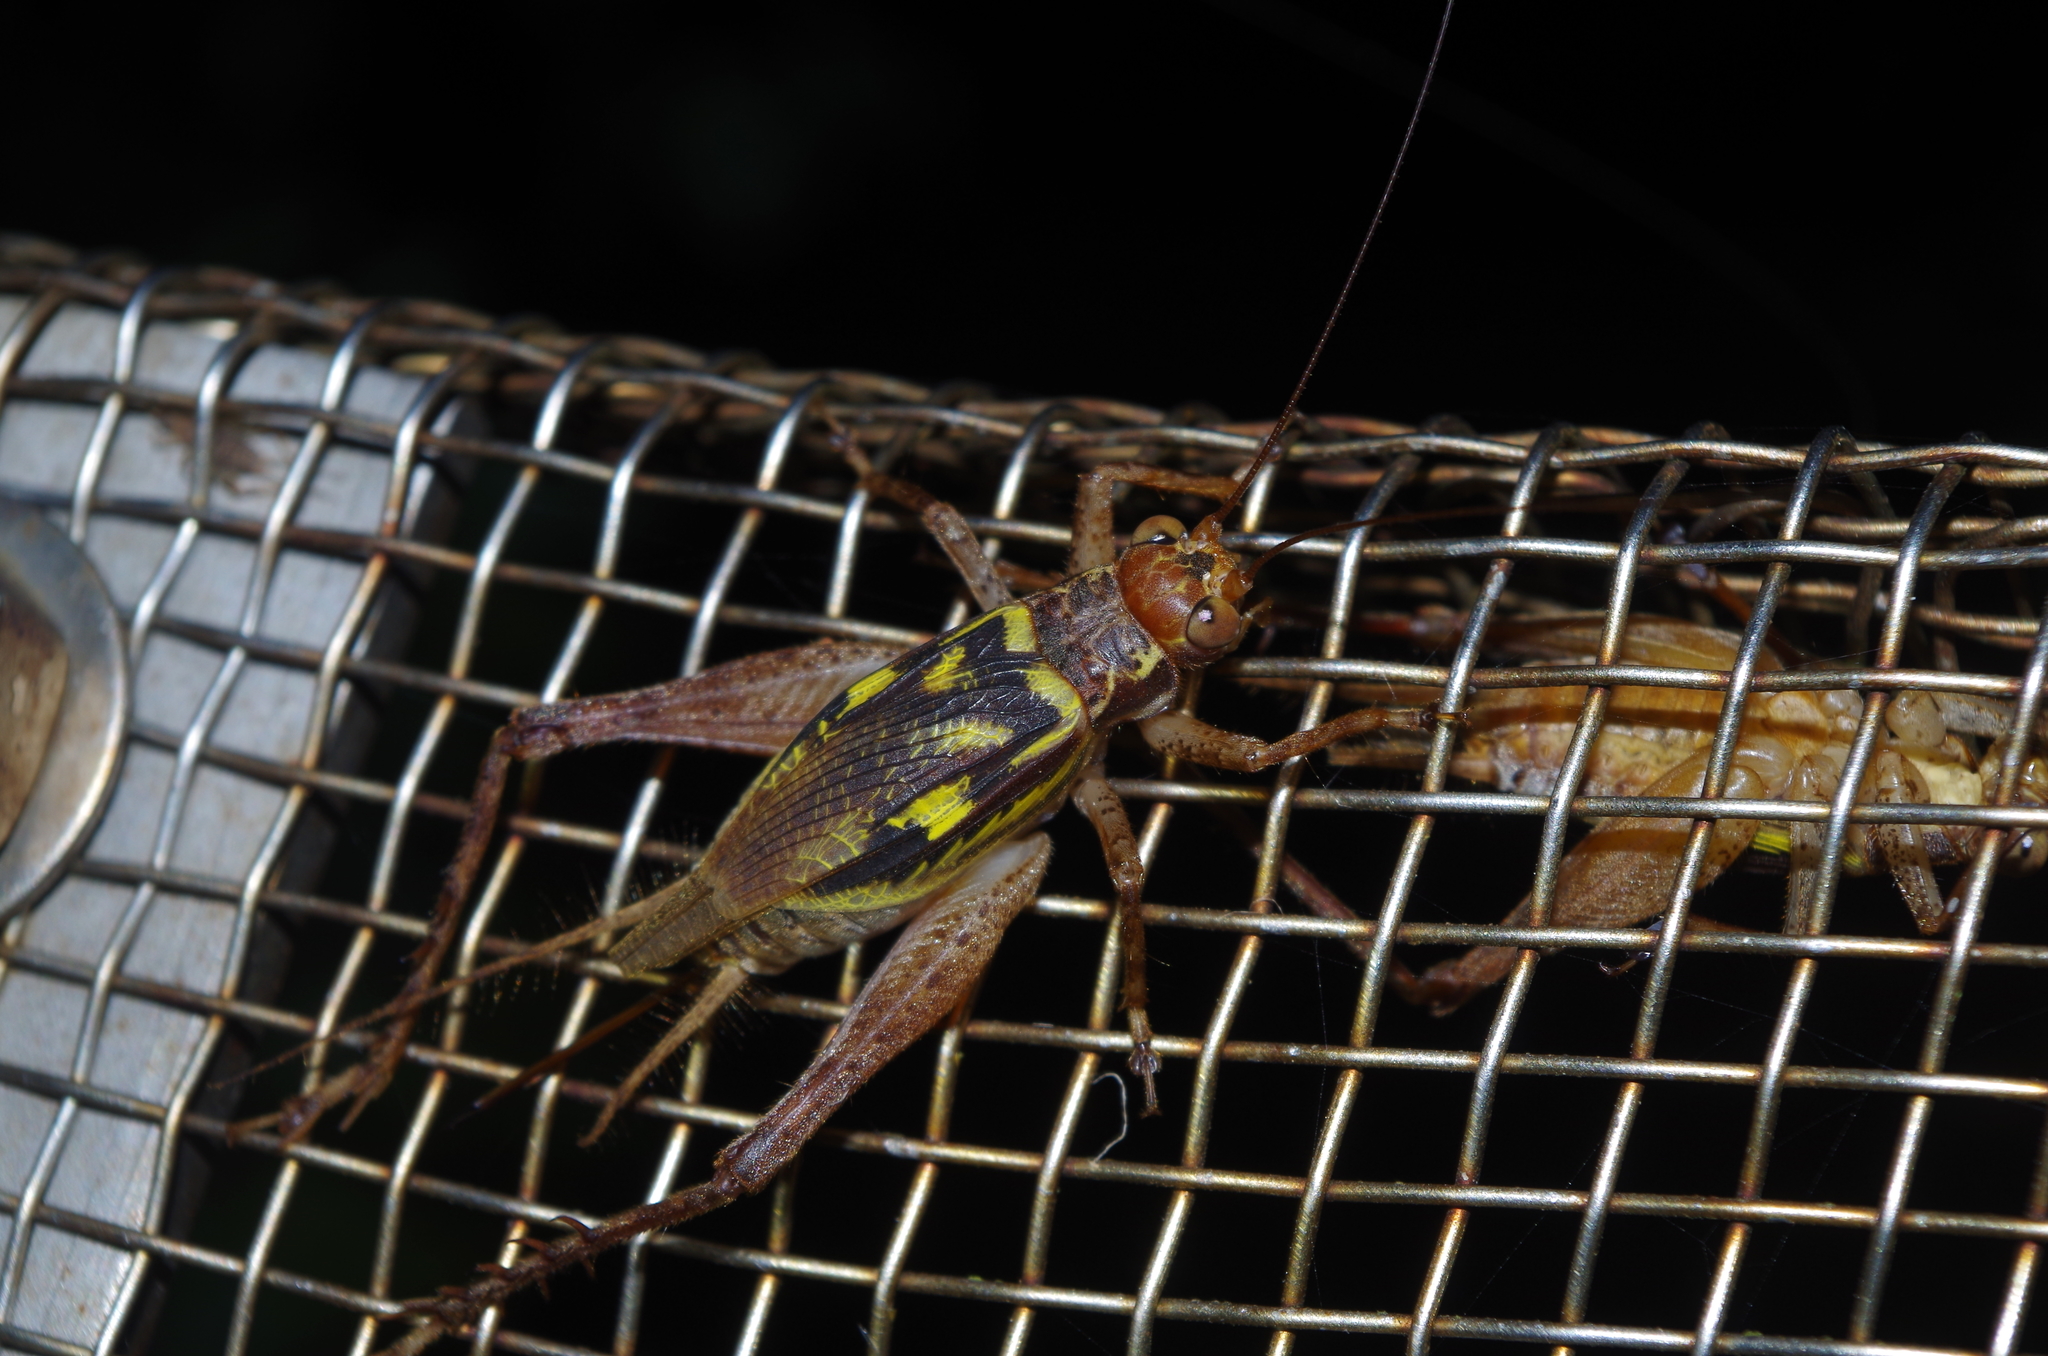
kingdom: Animalia
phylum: Arthropoda
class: Insecta
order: Orthoptera
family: Gryllidae
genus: Cardiodactylus
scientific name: Cardiodactylus guttulus
